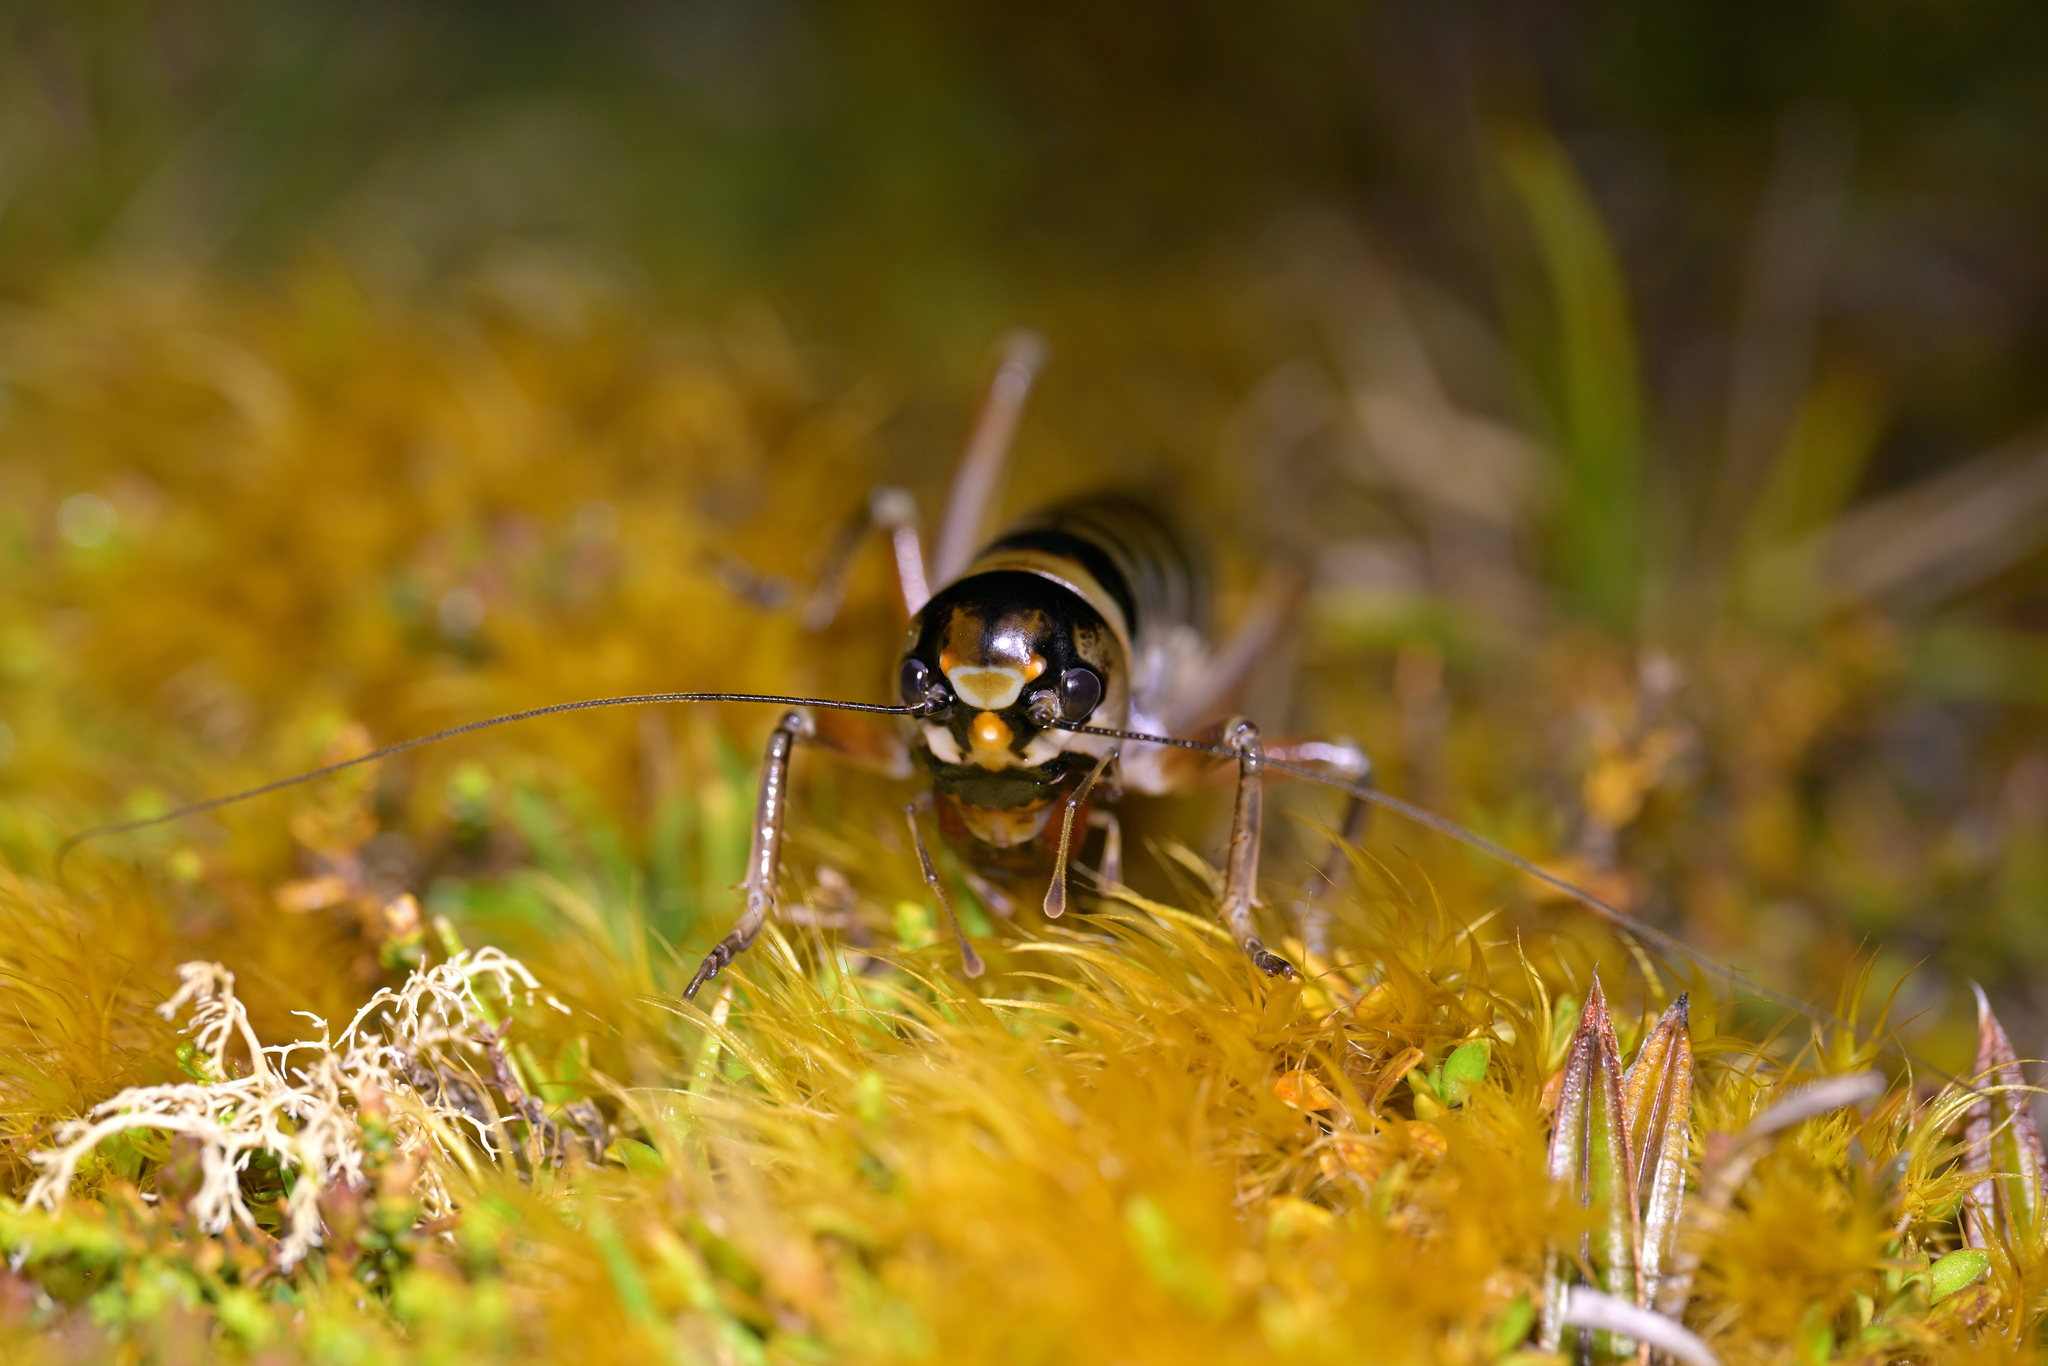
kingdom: Animalia
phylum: Arthropoda
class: Insecta
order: Orthoptera
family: Anostostomatidae
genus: Hemiandrus
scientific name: Hemiandrus focalis
